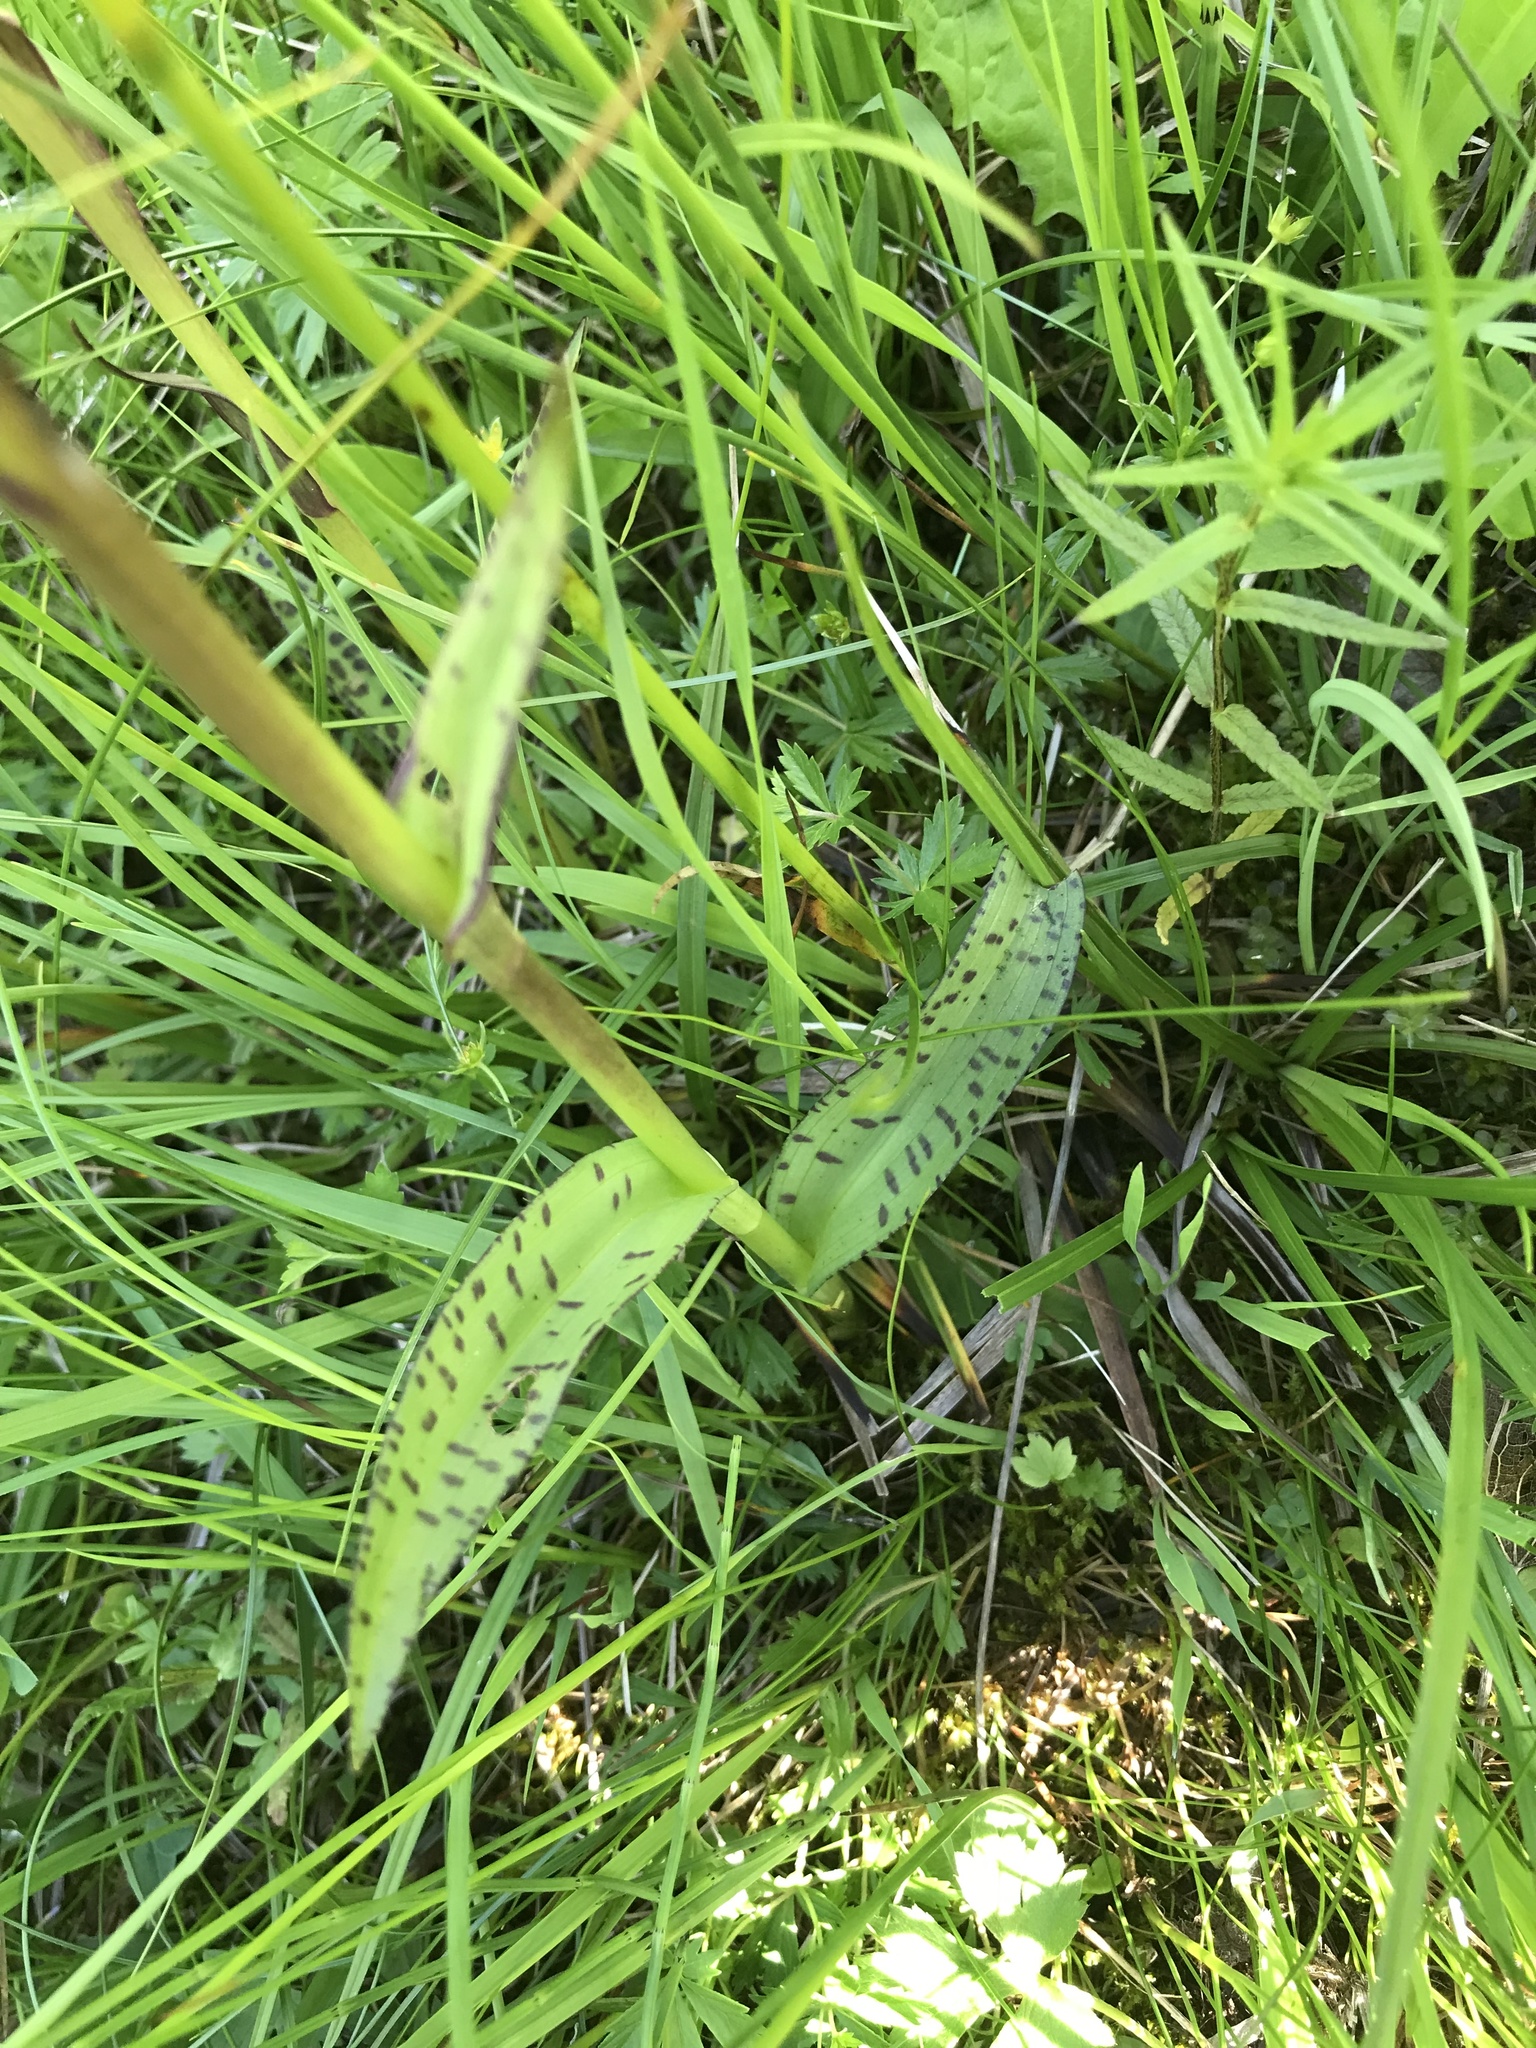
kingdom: Plantae
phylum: Tracheophyta
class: Liliopsida
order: Asparagales
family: Orchidaceae
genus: Dactylorhiza
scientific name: Dactylorhiza majalis
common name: Marsh orchid
